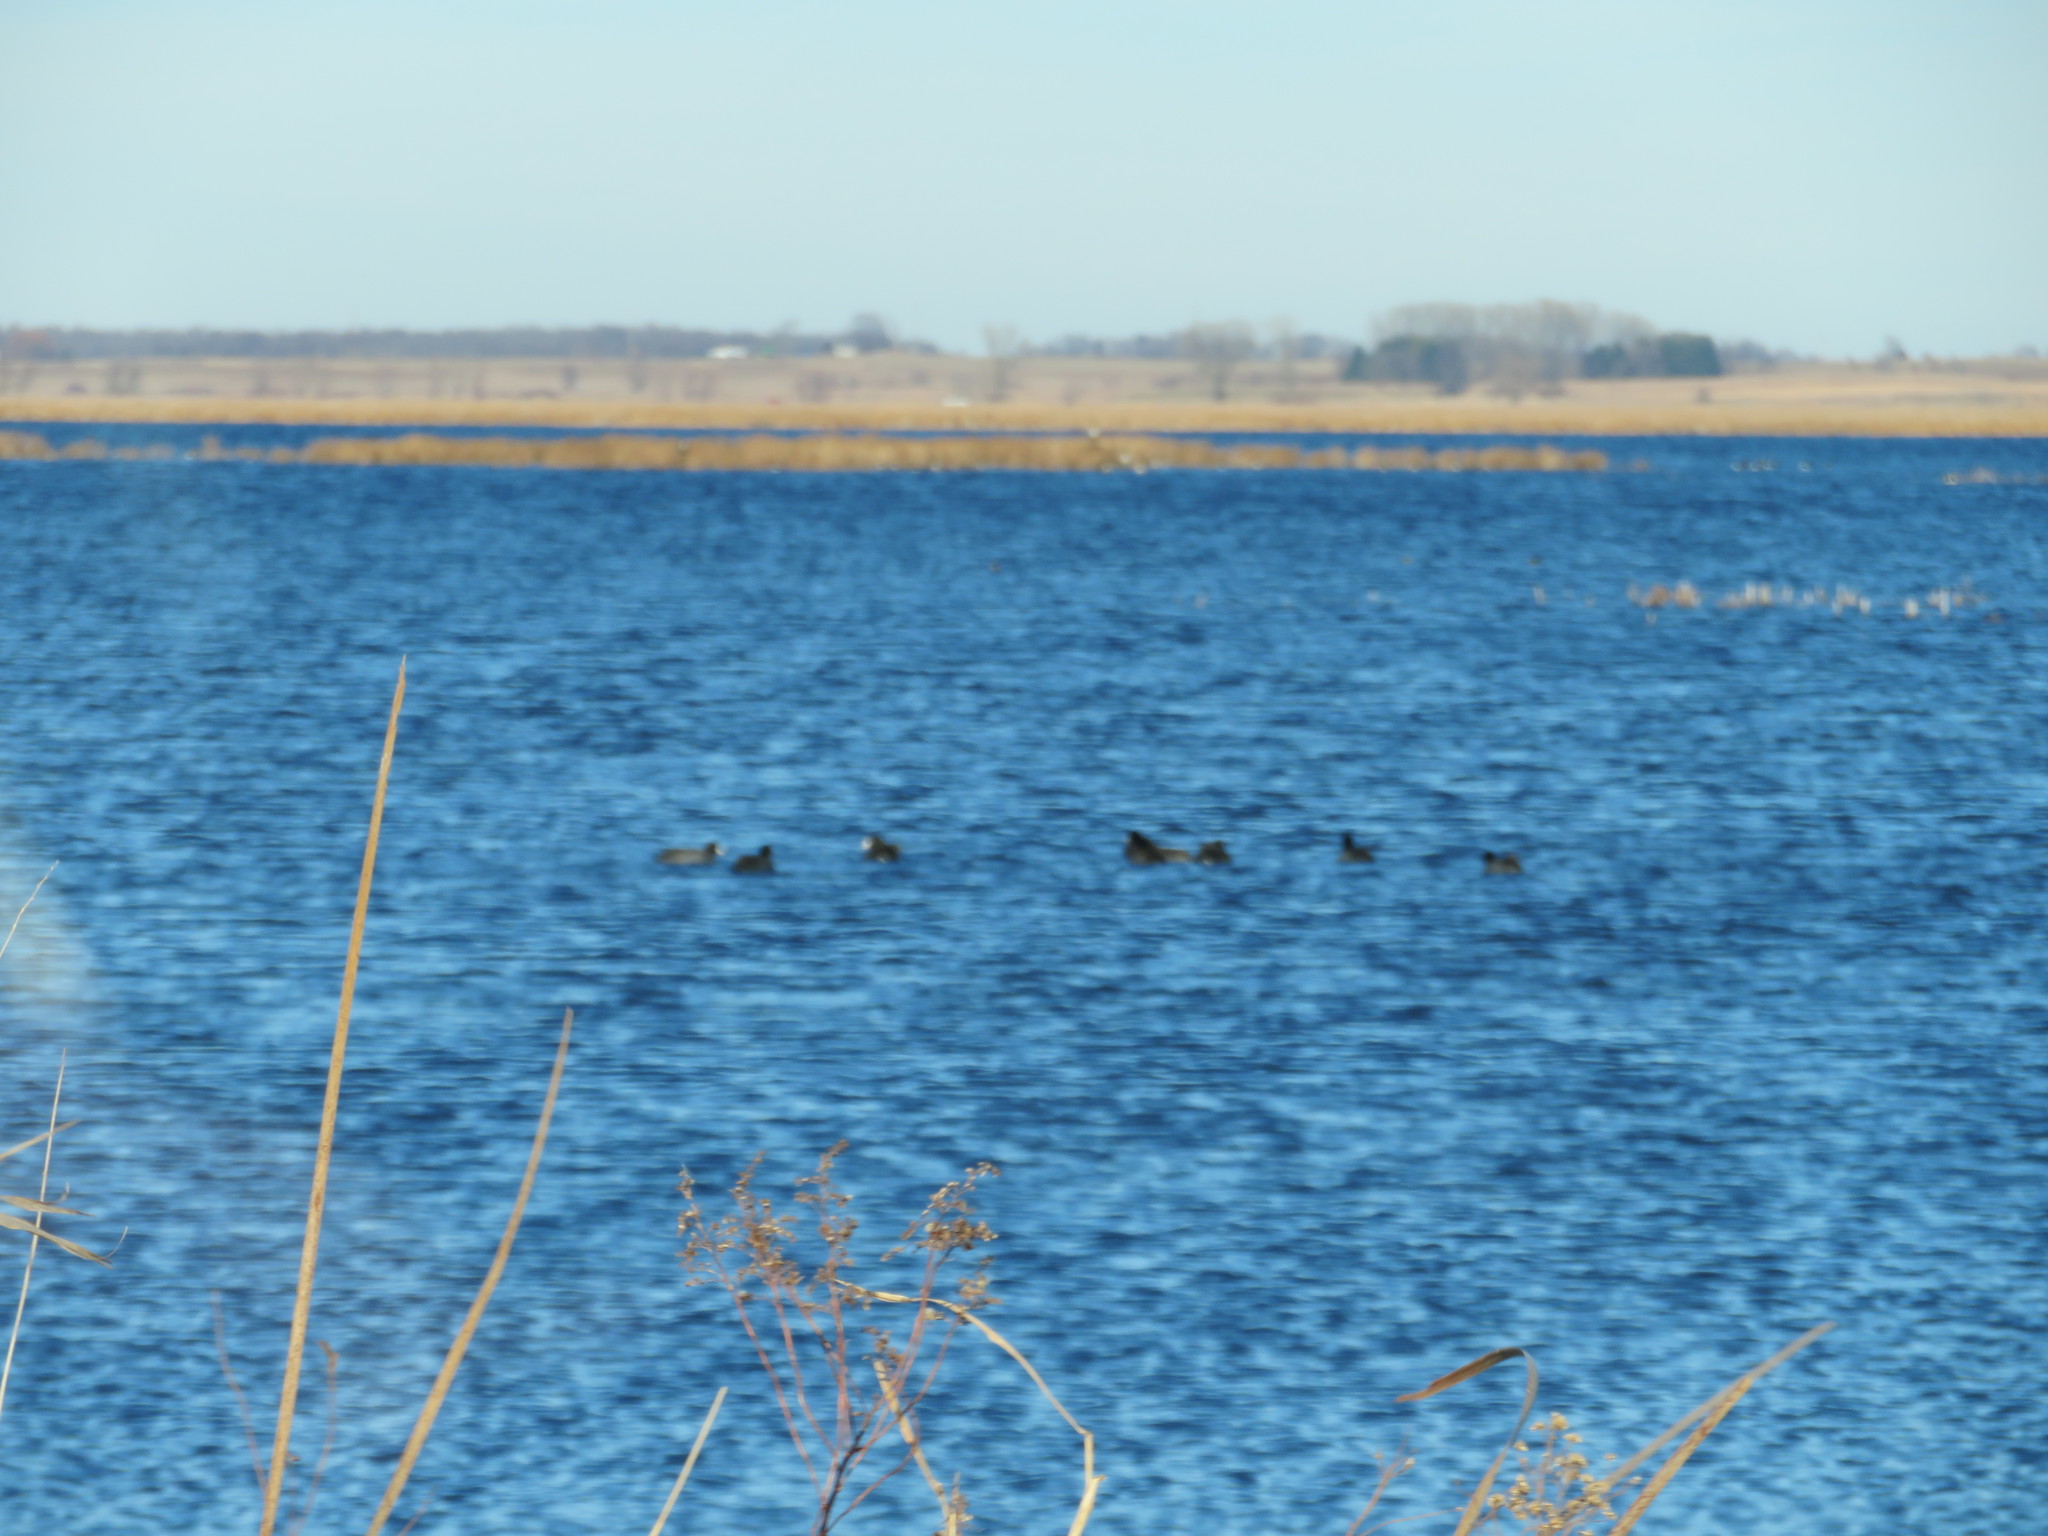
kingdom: Animalia
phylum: Chordata
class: Aves
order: Gruiformes
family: Rallidae
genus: Fulica
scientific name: Fulica americana
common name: American coot
